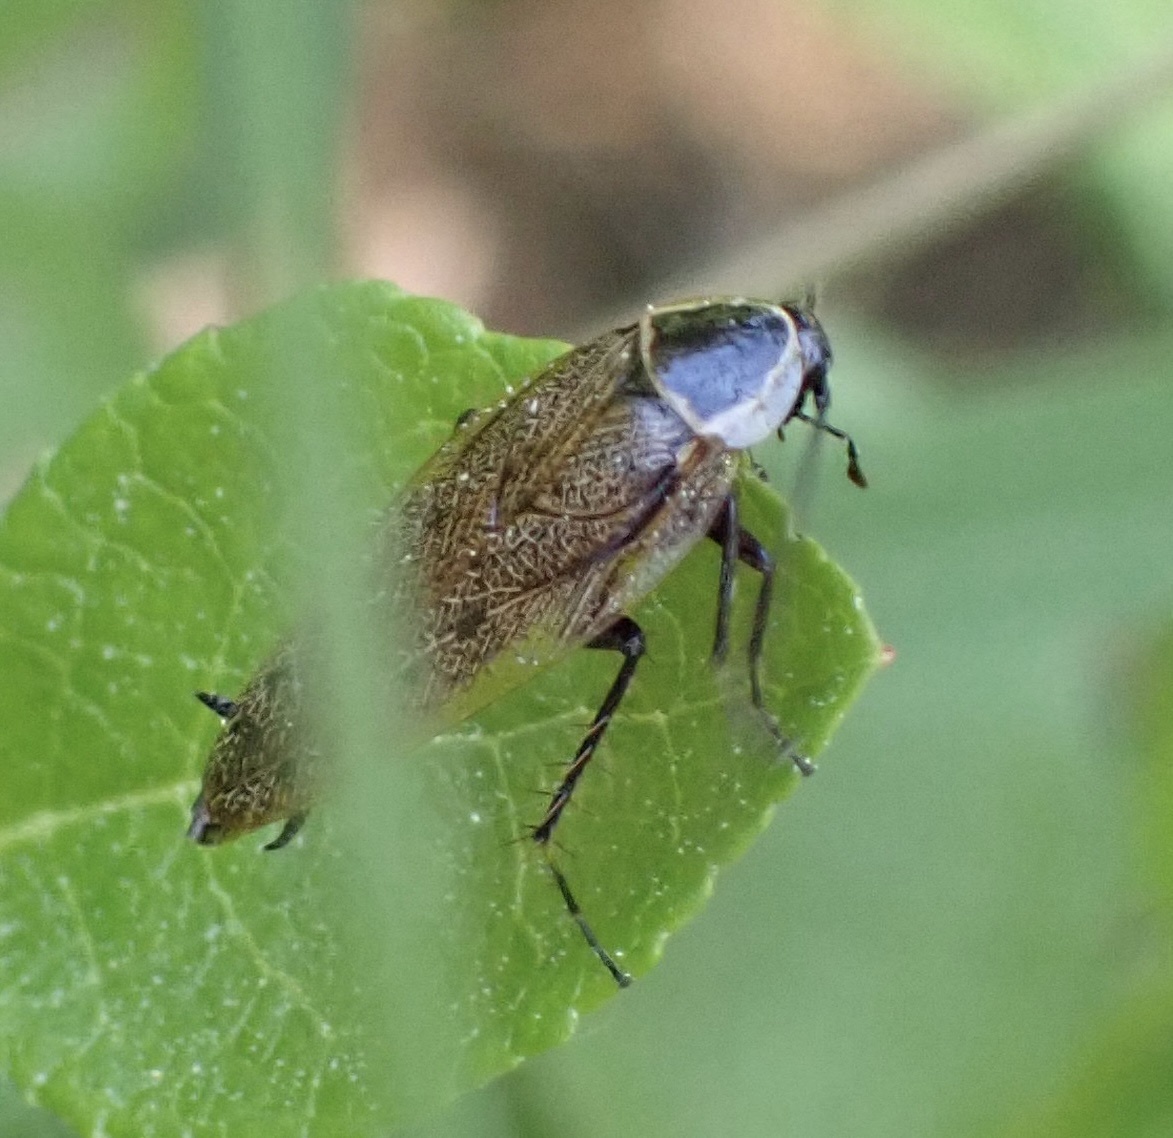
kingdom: Animalia
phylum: Arthropoda
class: Insecta
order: Blattodea
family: Ectobiidae
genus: Ectobius
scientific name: Ectobius sylvestris
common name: Forest cockroach
